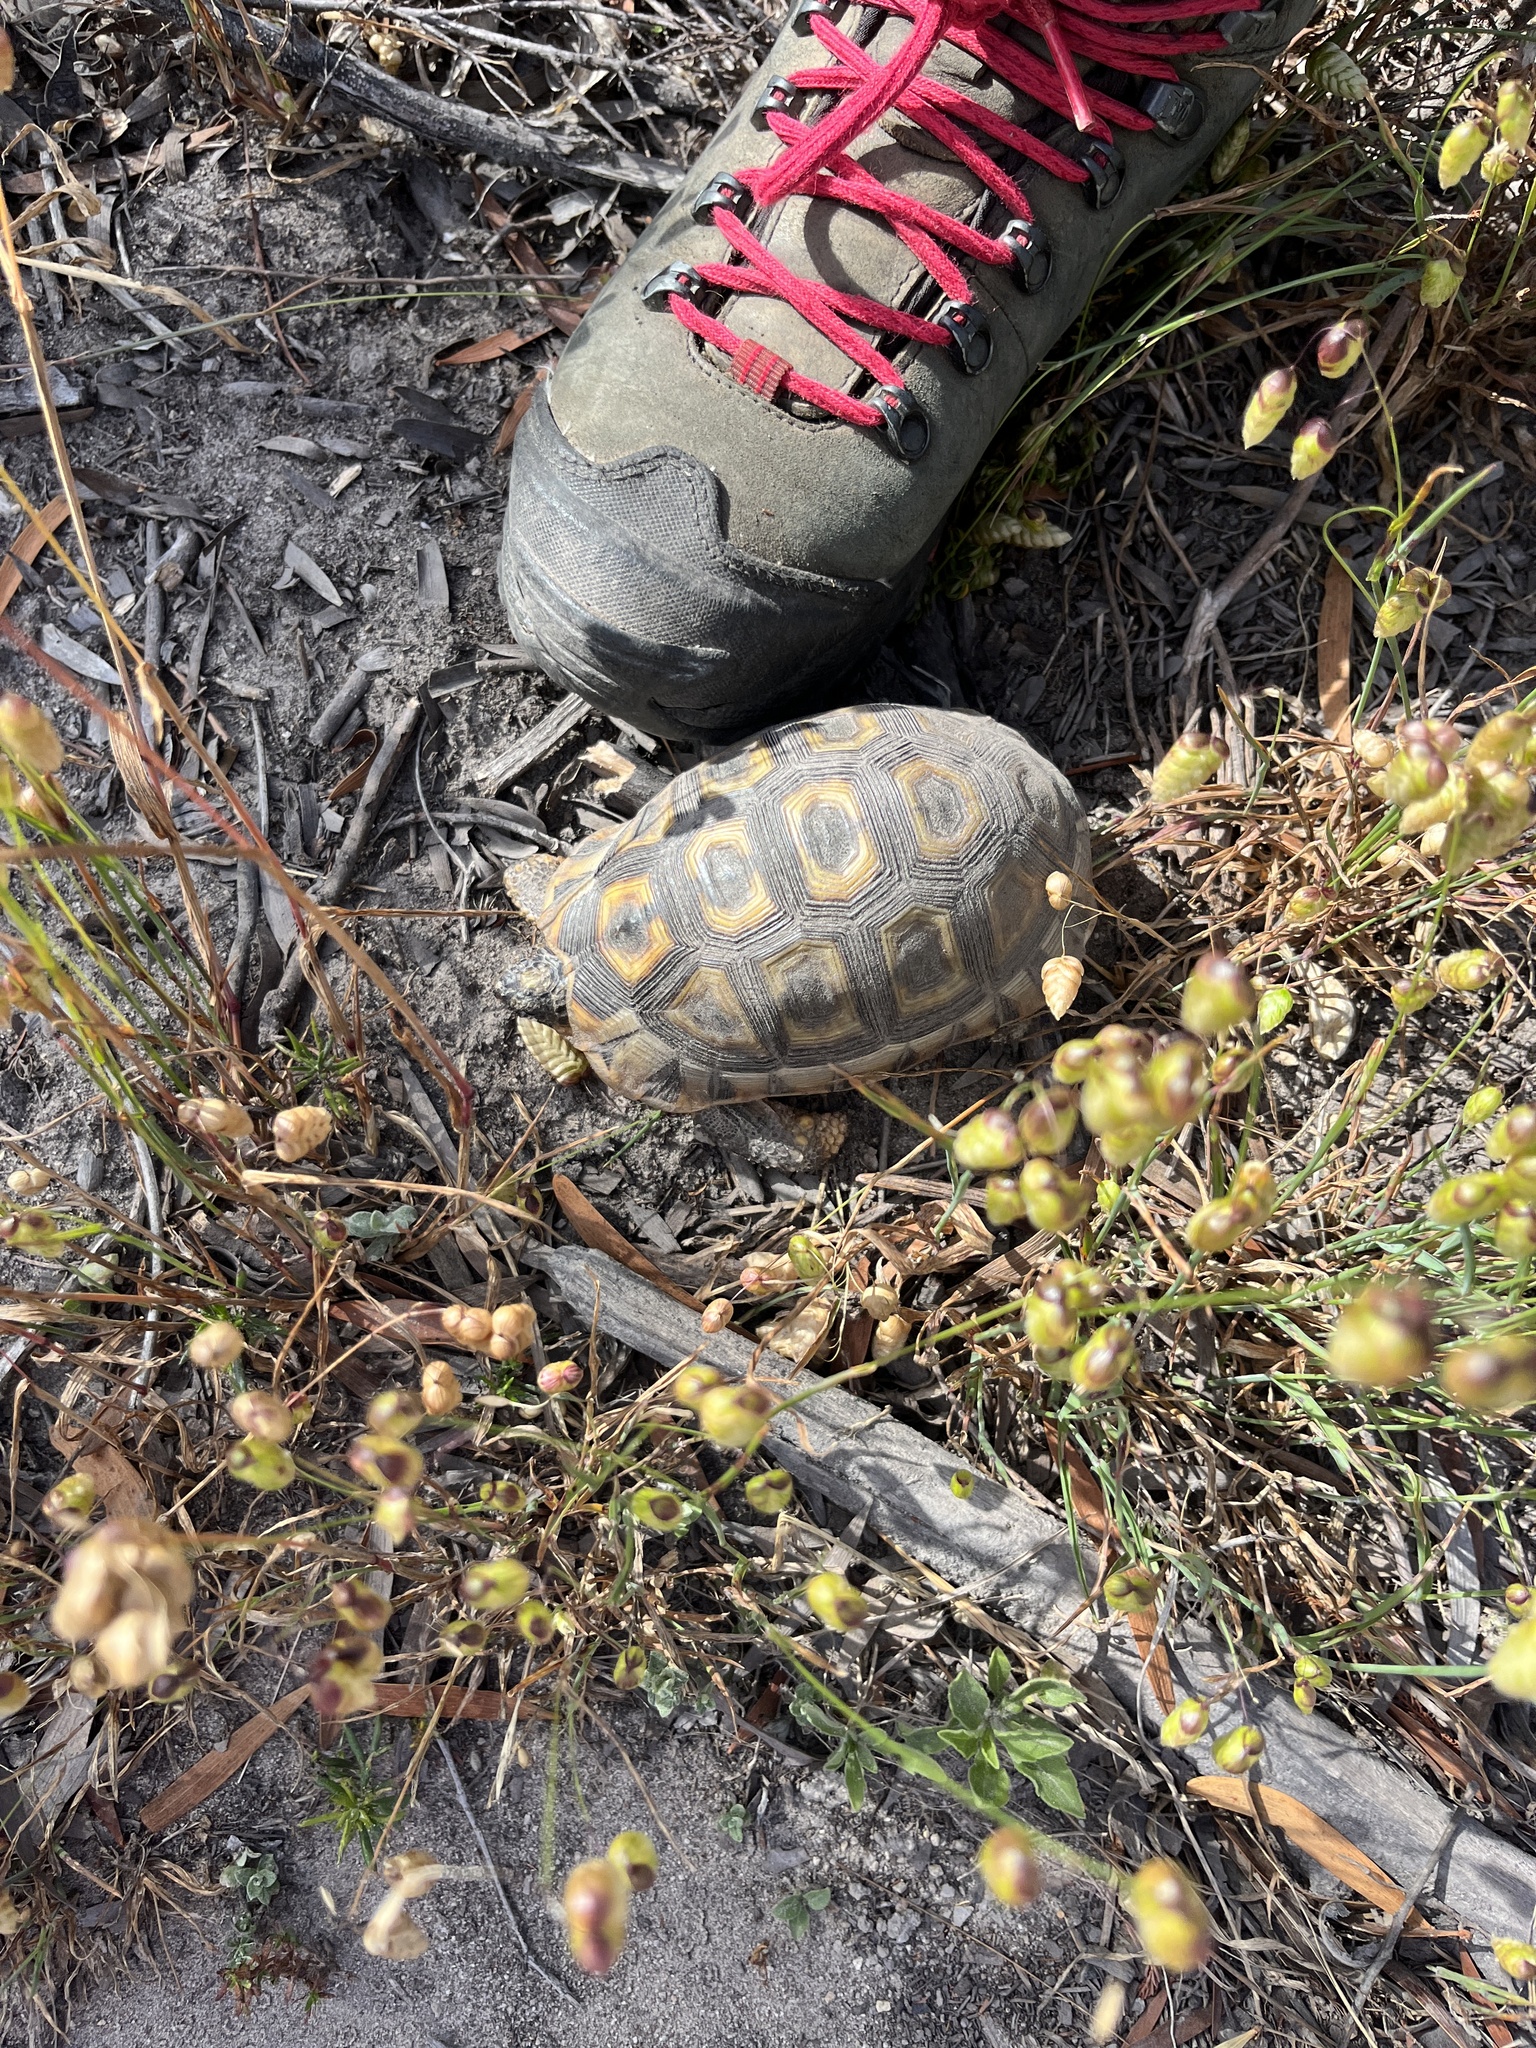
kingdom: Animalia
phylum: Chordata
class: Testudines
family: Testudinidae
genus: Chersina
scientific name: Chersina angulata
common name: South african bowsprit tortoise
